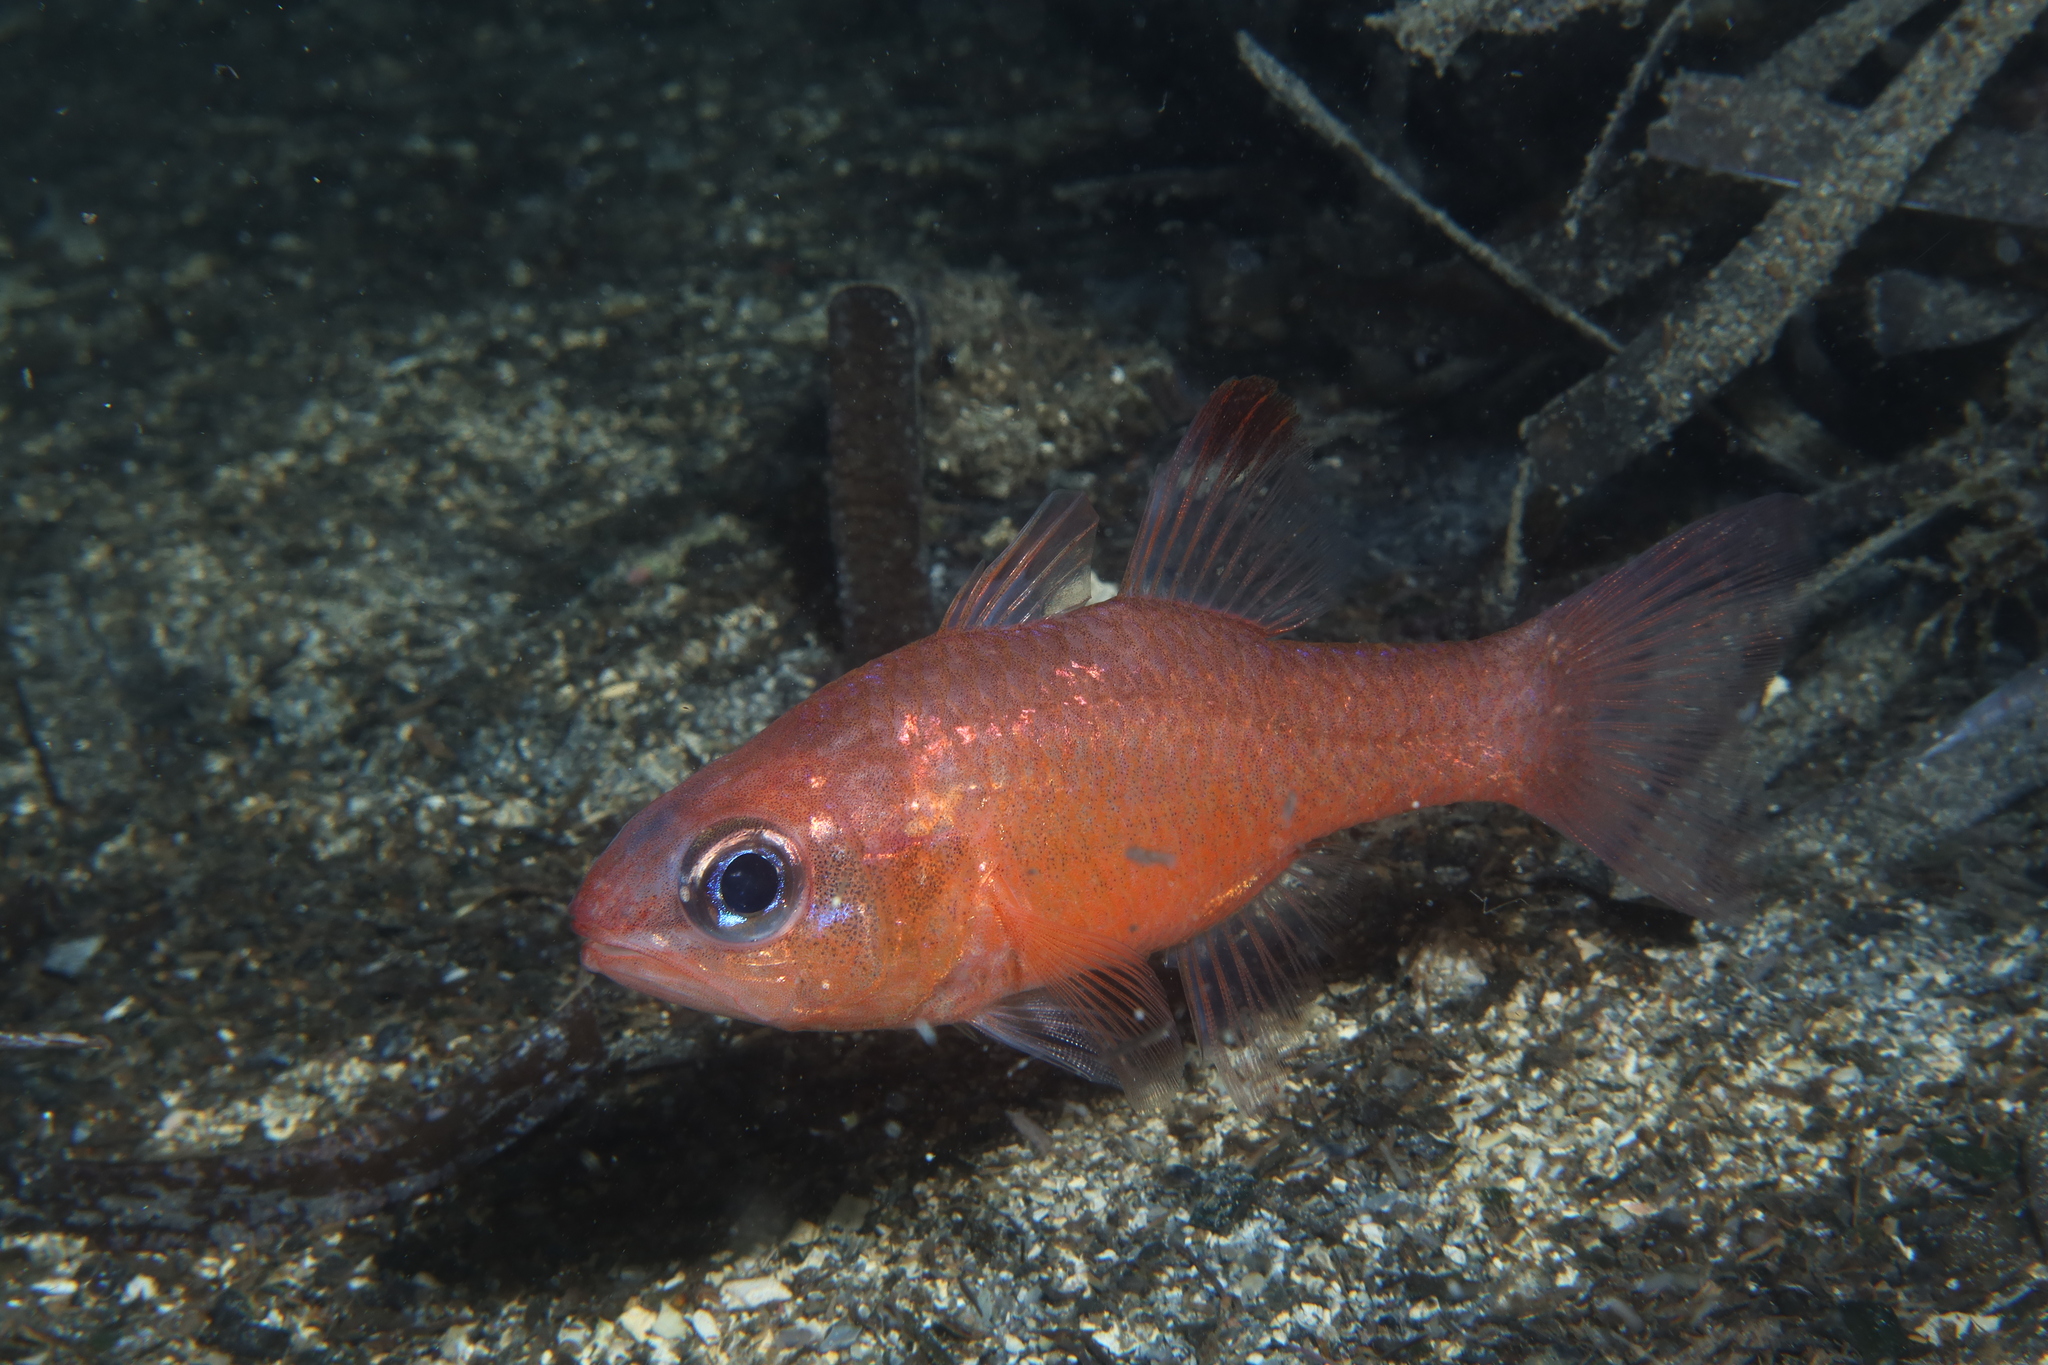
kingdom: Animalia
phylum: Chordata
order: Perciformes
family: Apogonidae
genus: Apogon
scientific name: Apogon imberbis
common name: Cardinal fish
